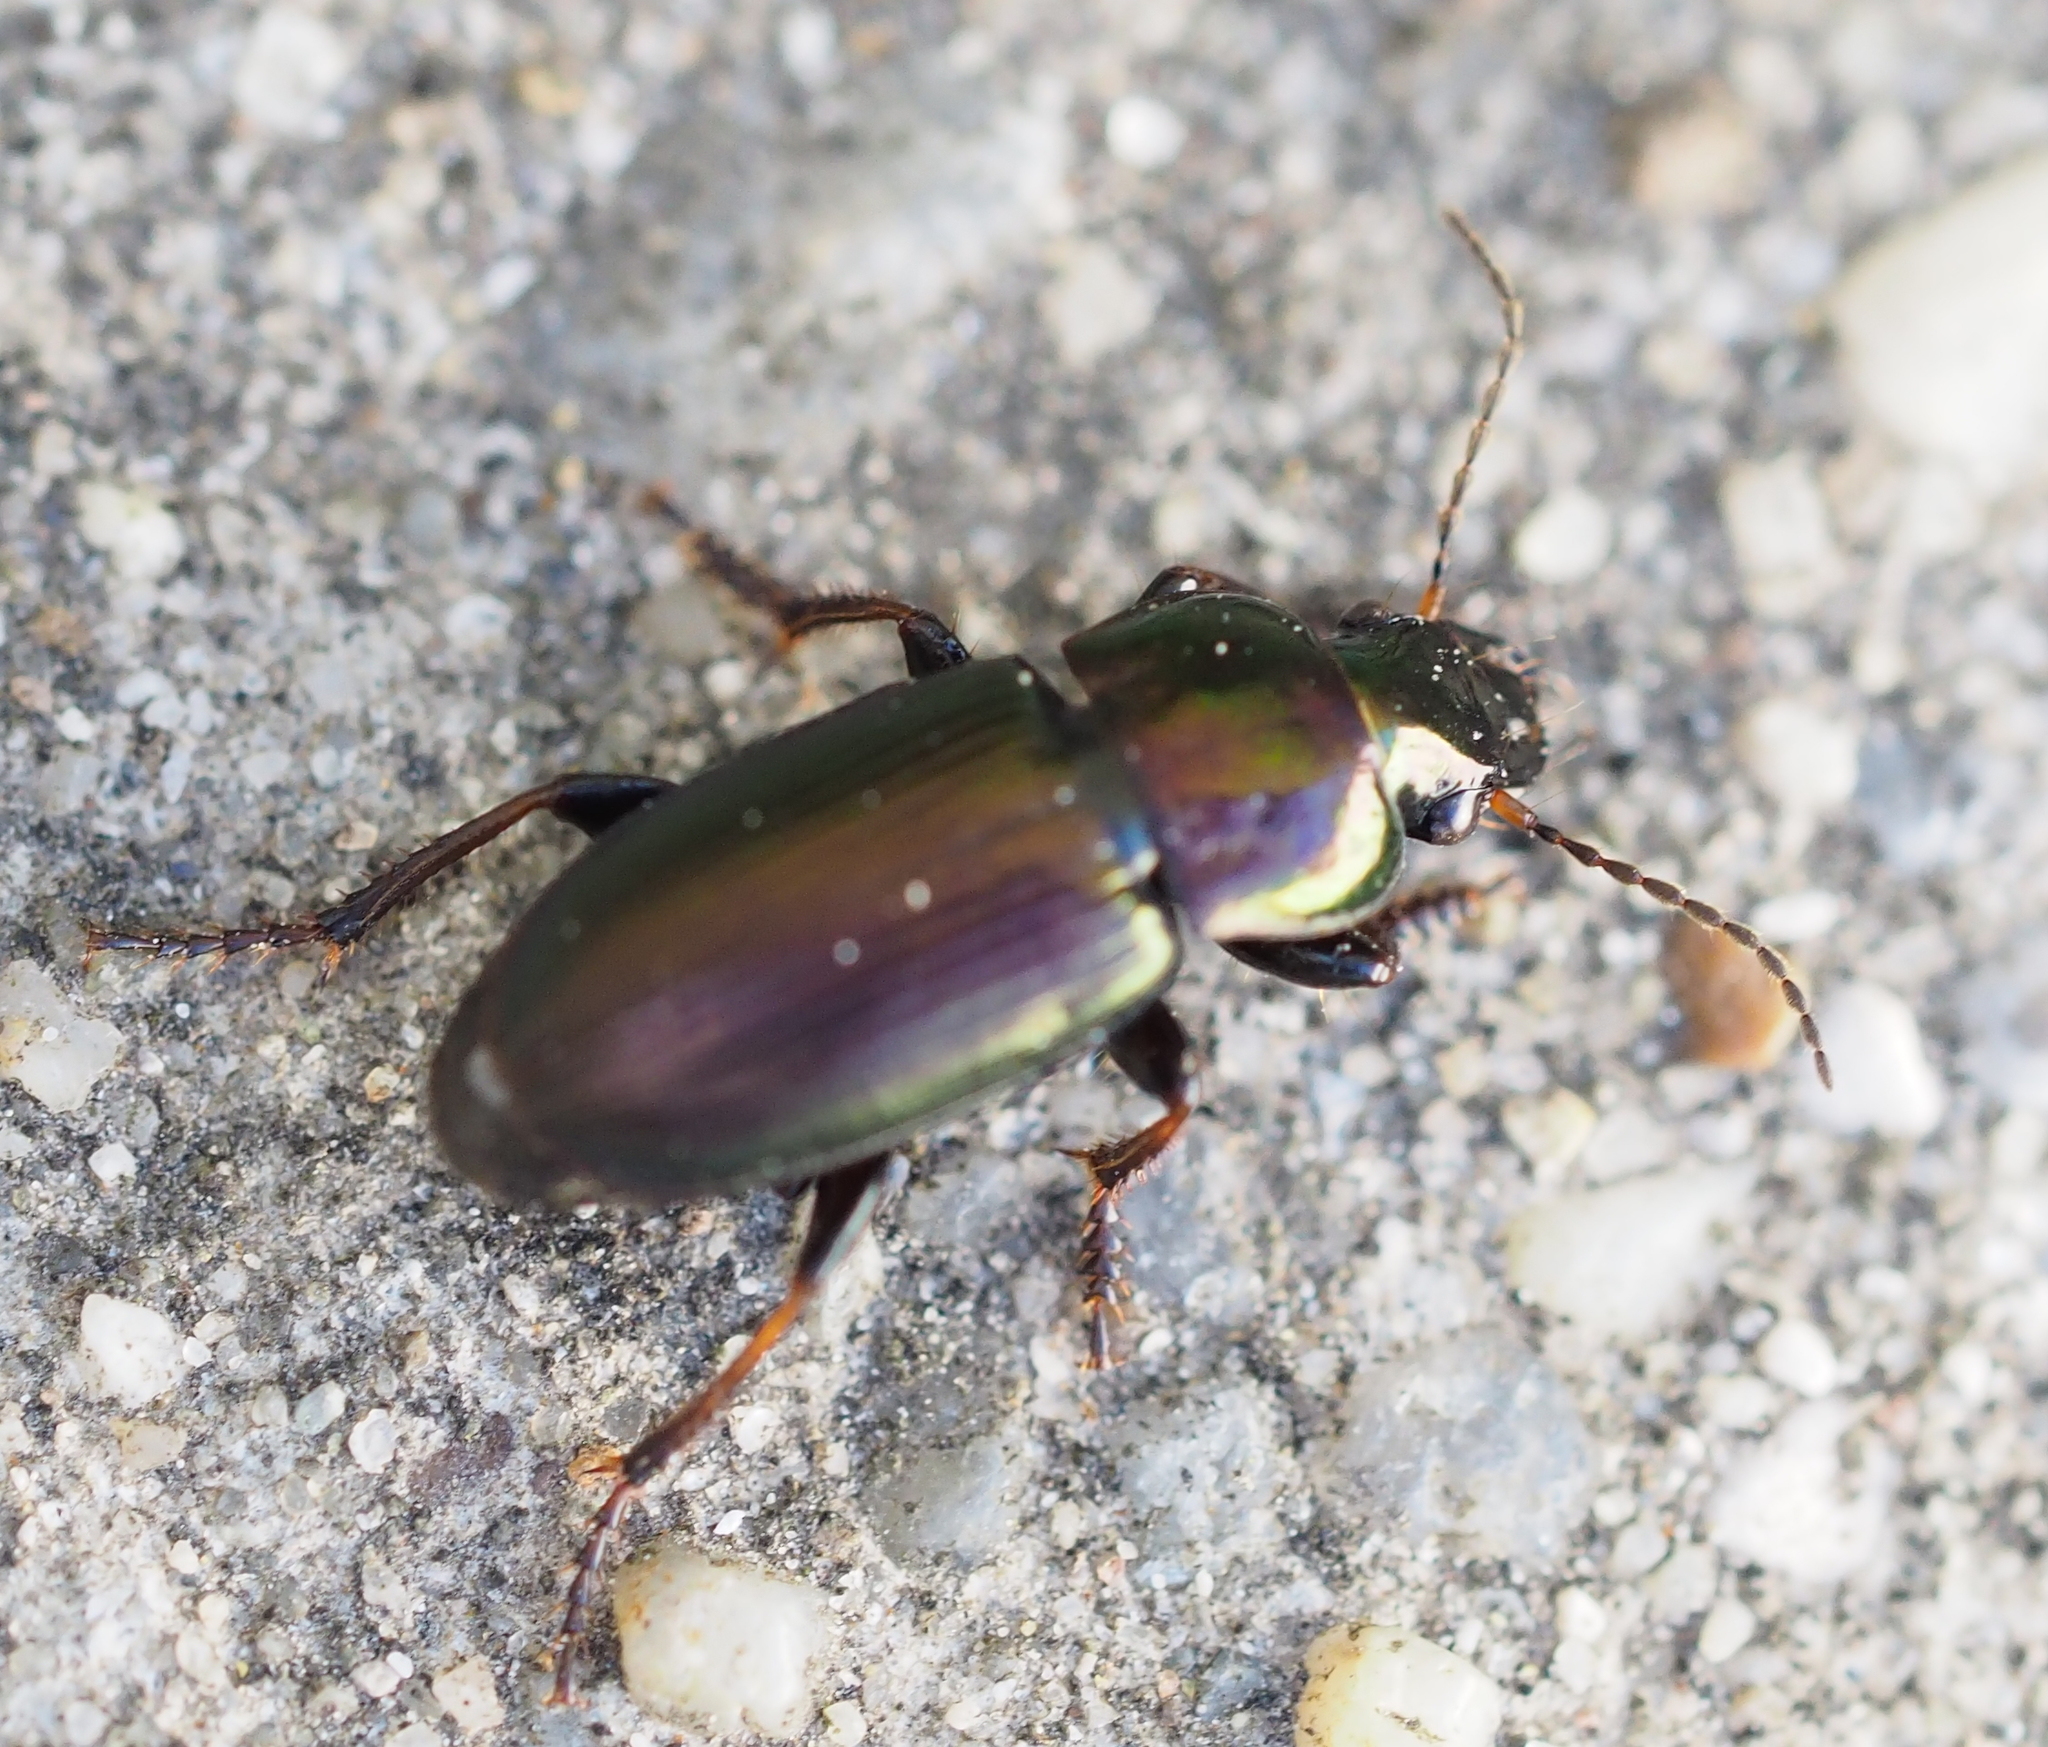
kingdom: Animalia
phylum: Arthropoda
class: Insecta
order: Coleoptera
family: Carabidae
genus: Harpalus
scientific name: Harpalus distinguendus
